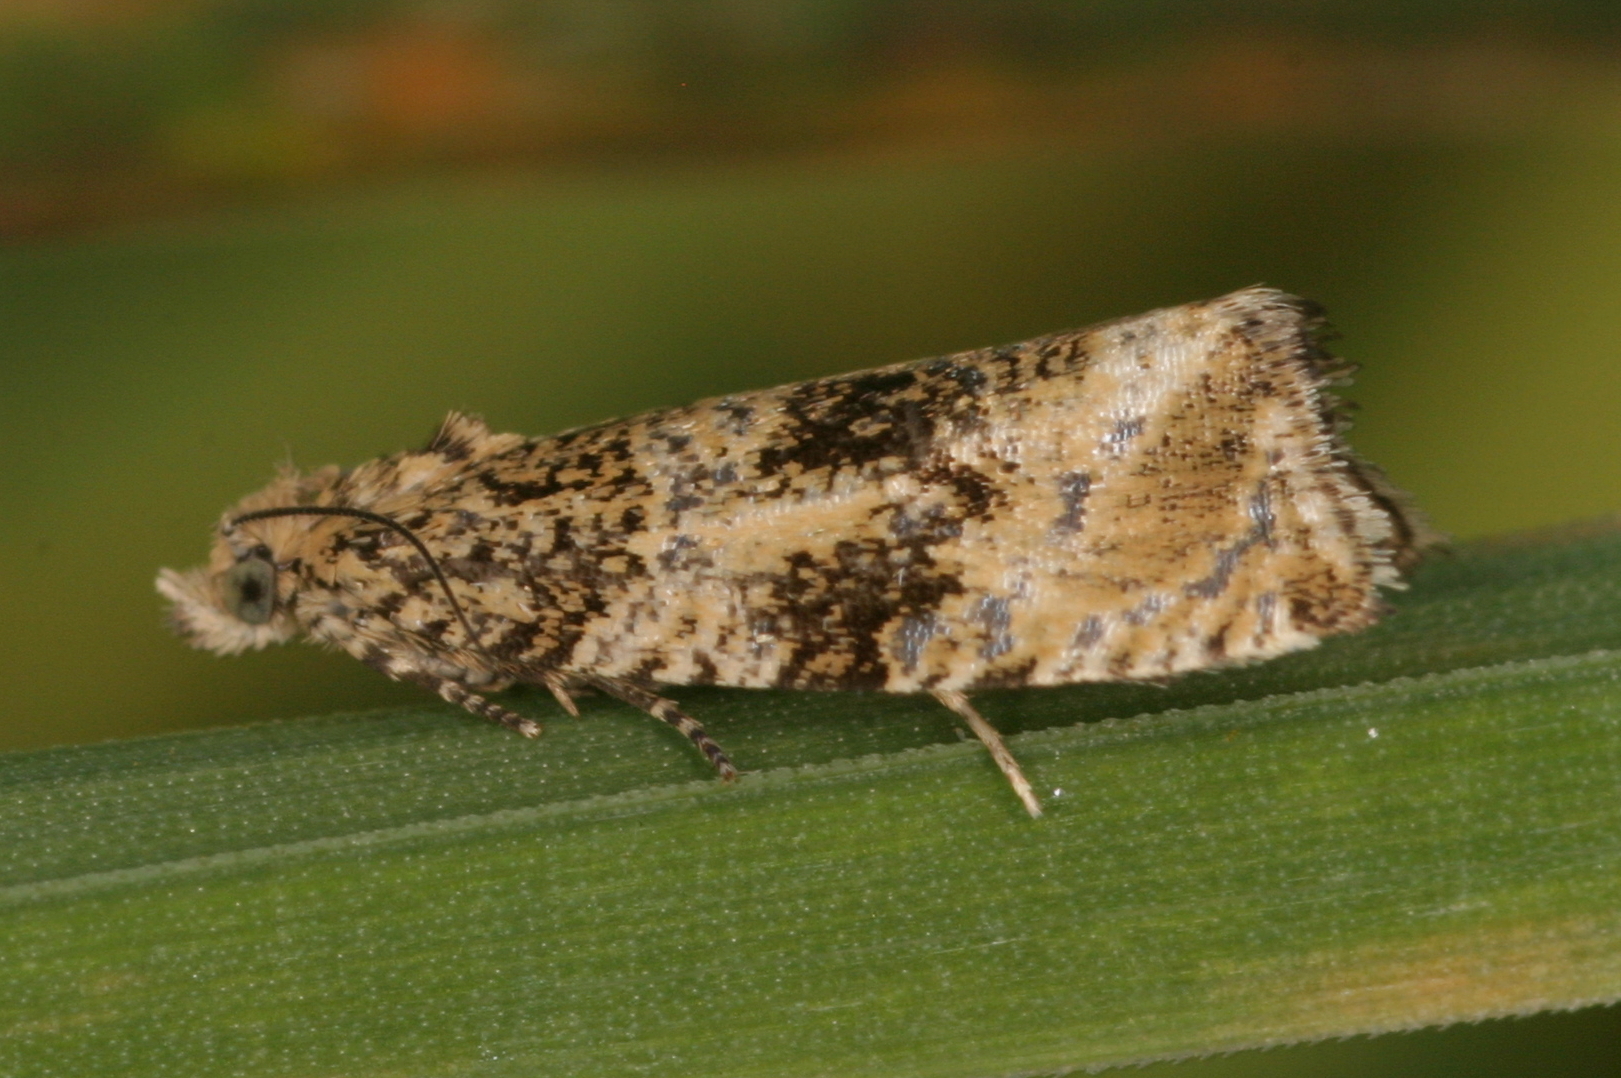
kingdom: Animalia
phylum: Arthropoda
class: Insecta
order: Lepidoptera
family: Tortricidae
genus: Syricoris
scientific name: Syricoris lacunana
